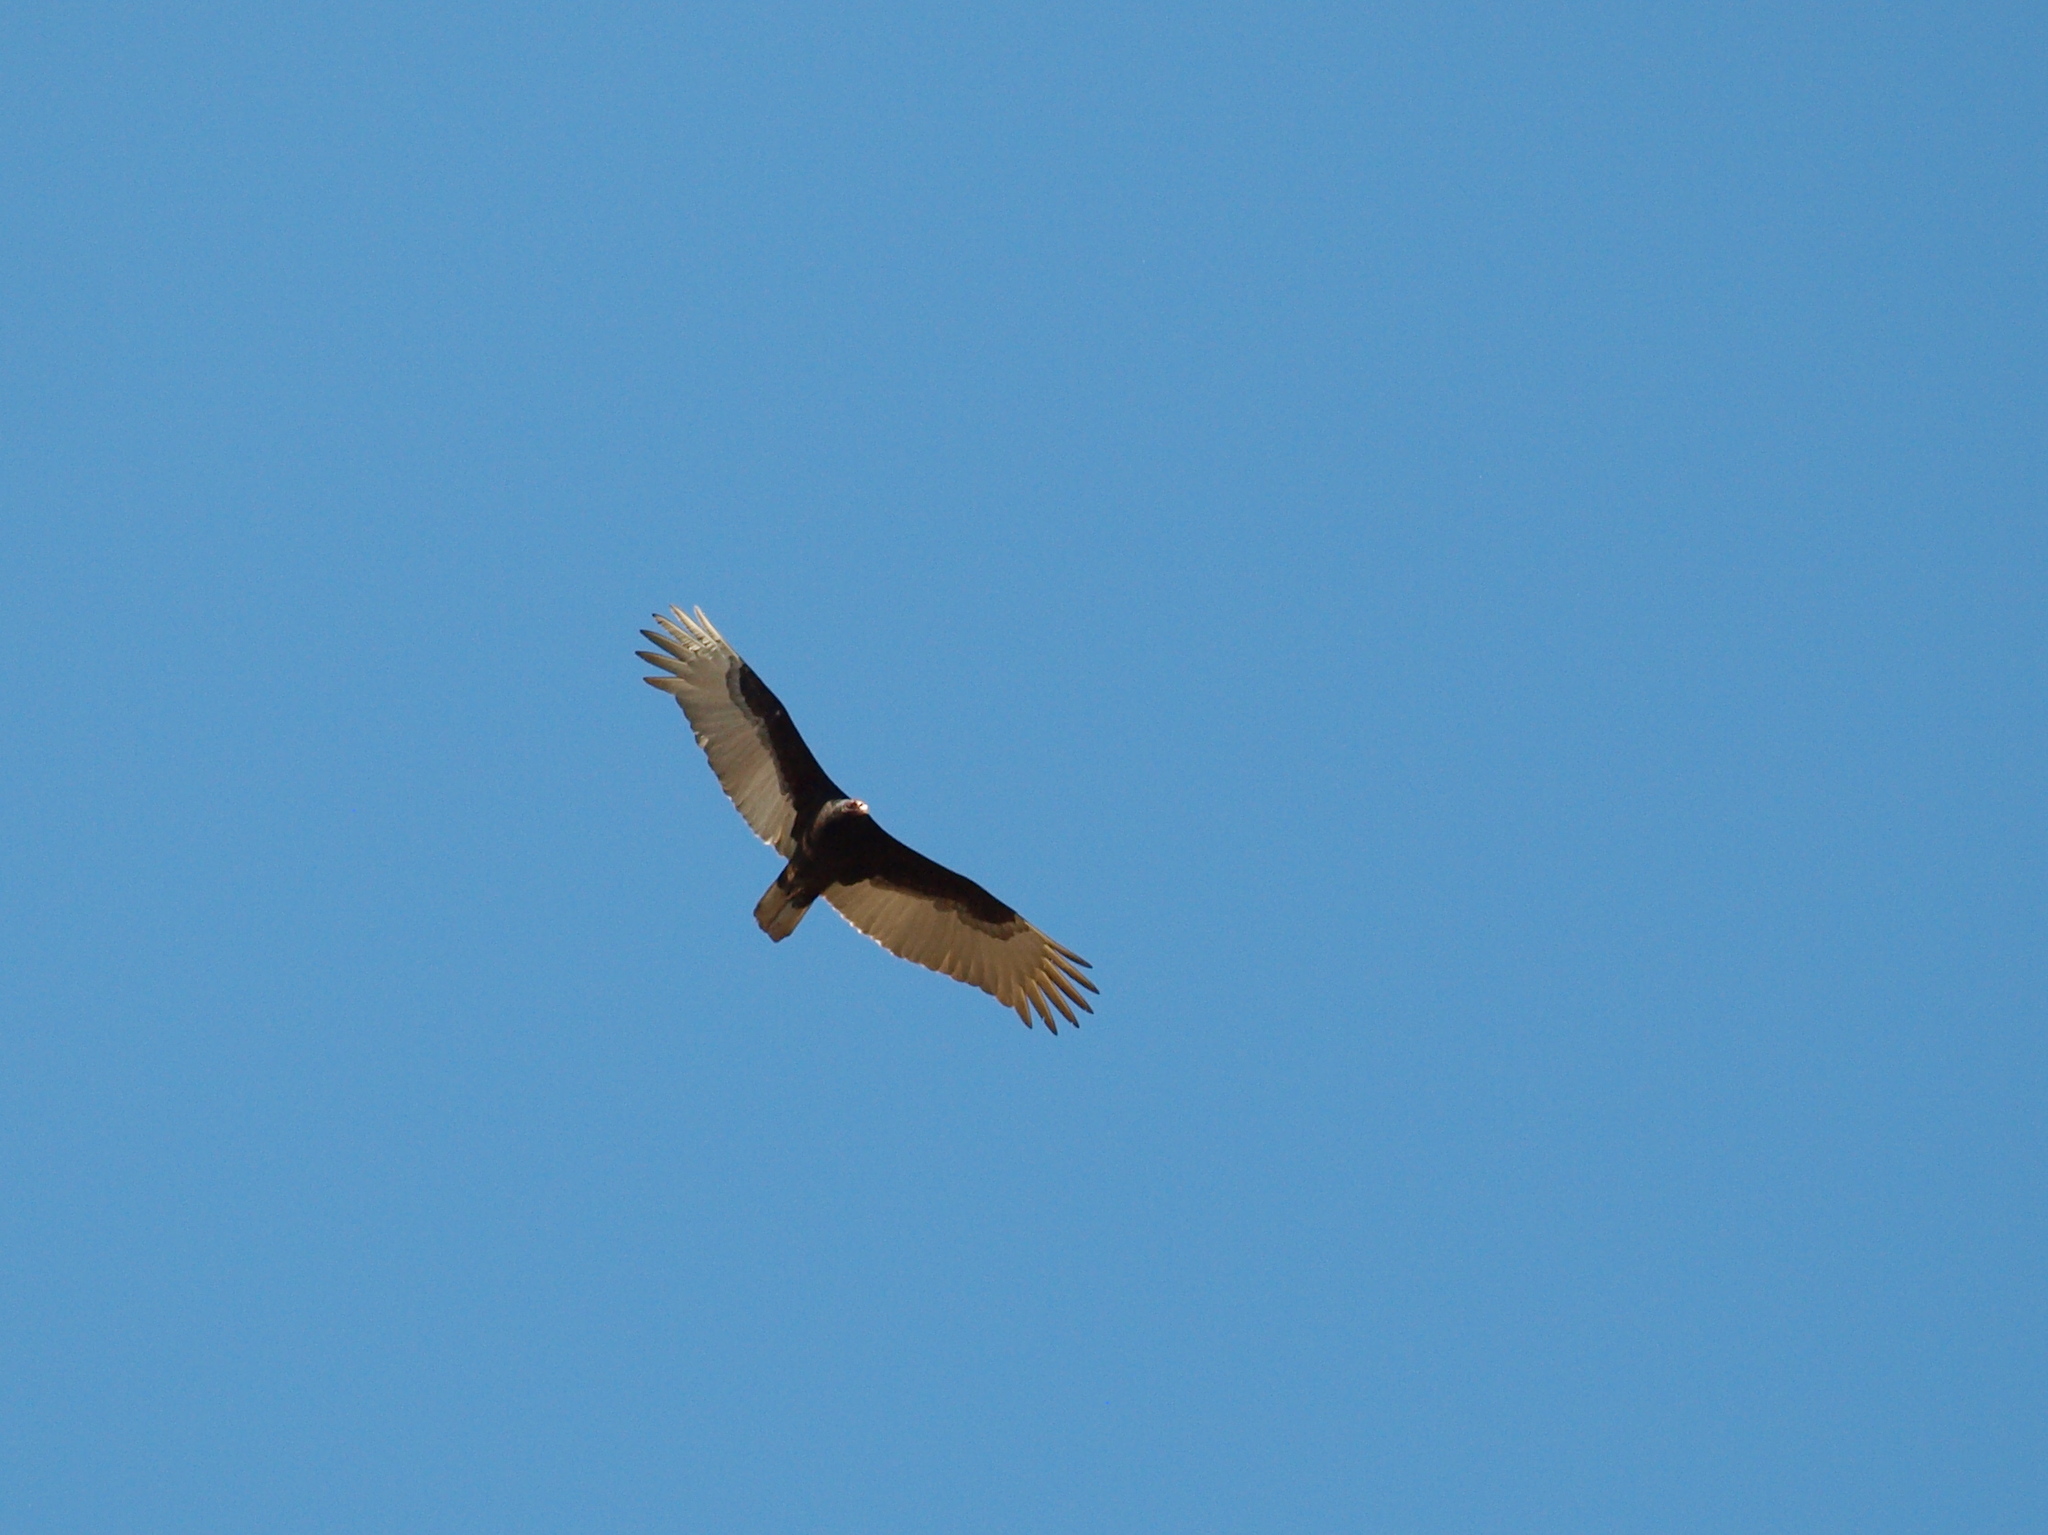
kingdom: Animalia
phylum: Chordata
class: Aves
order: Accipitriformes
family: Cathartidae
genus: Cathartes
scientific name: Cathartes aura
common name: Turkey vulture
